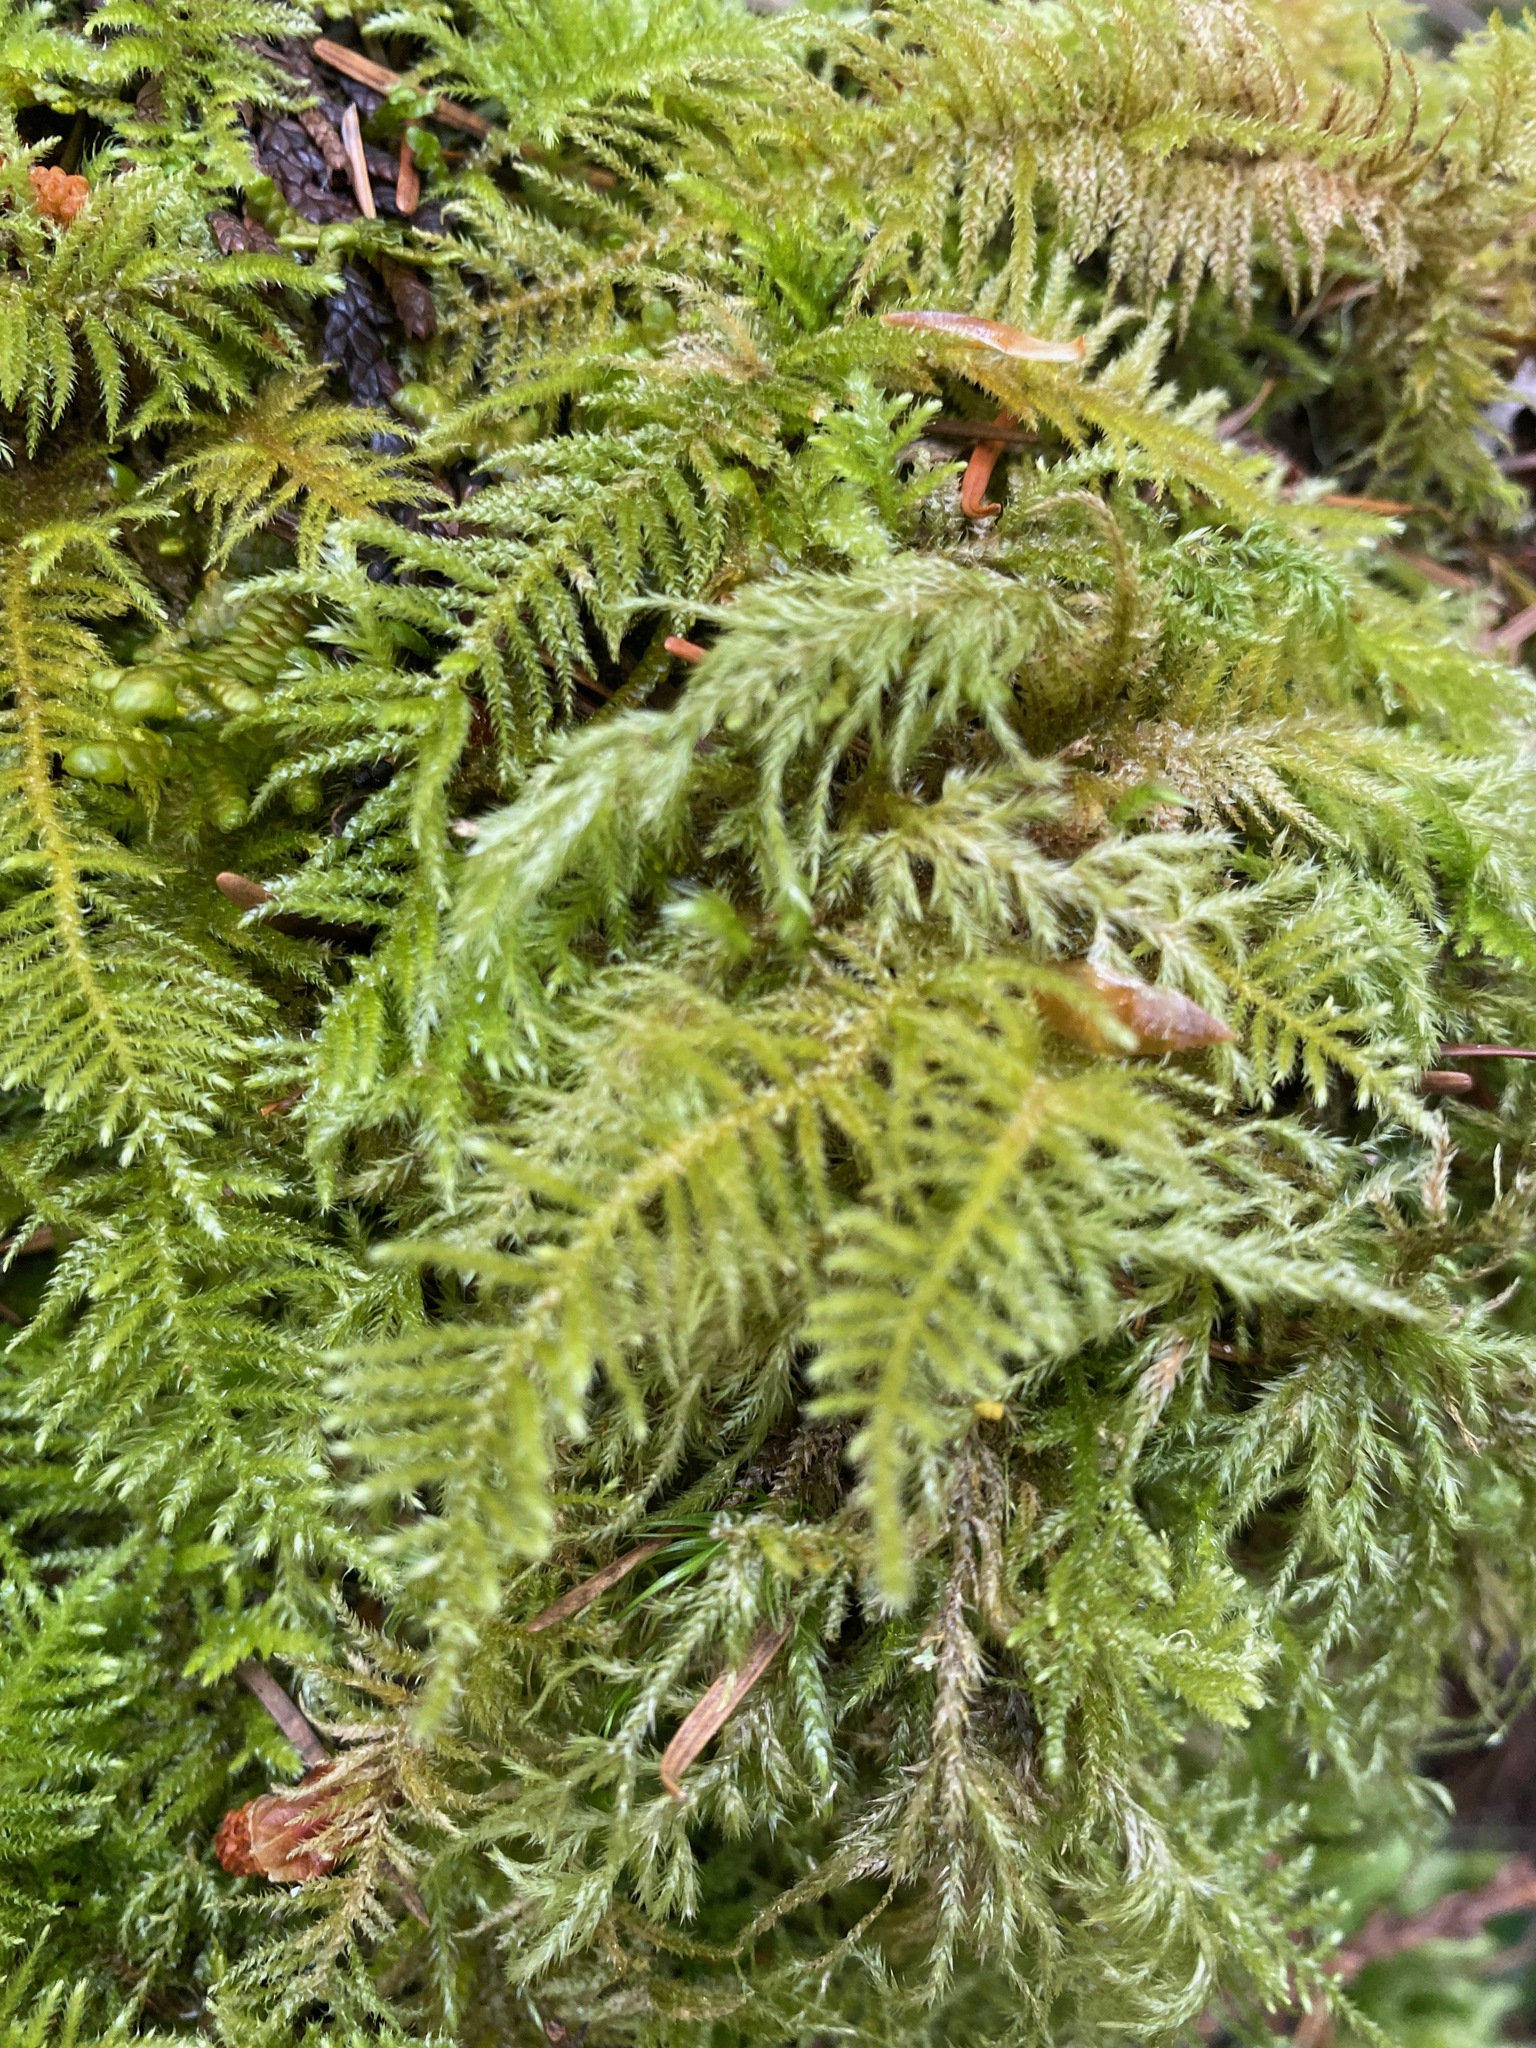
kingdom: Plantae
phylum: Bryophyta
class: Bryopsida
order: Hypnales
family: Brachytheciaceae
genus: Kindbergia
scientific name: Kindbergia oregana
